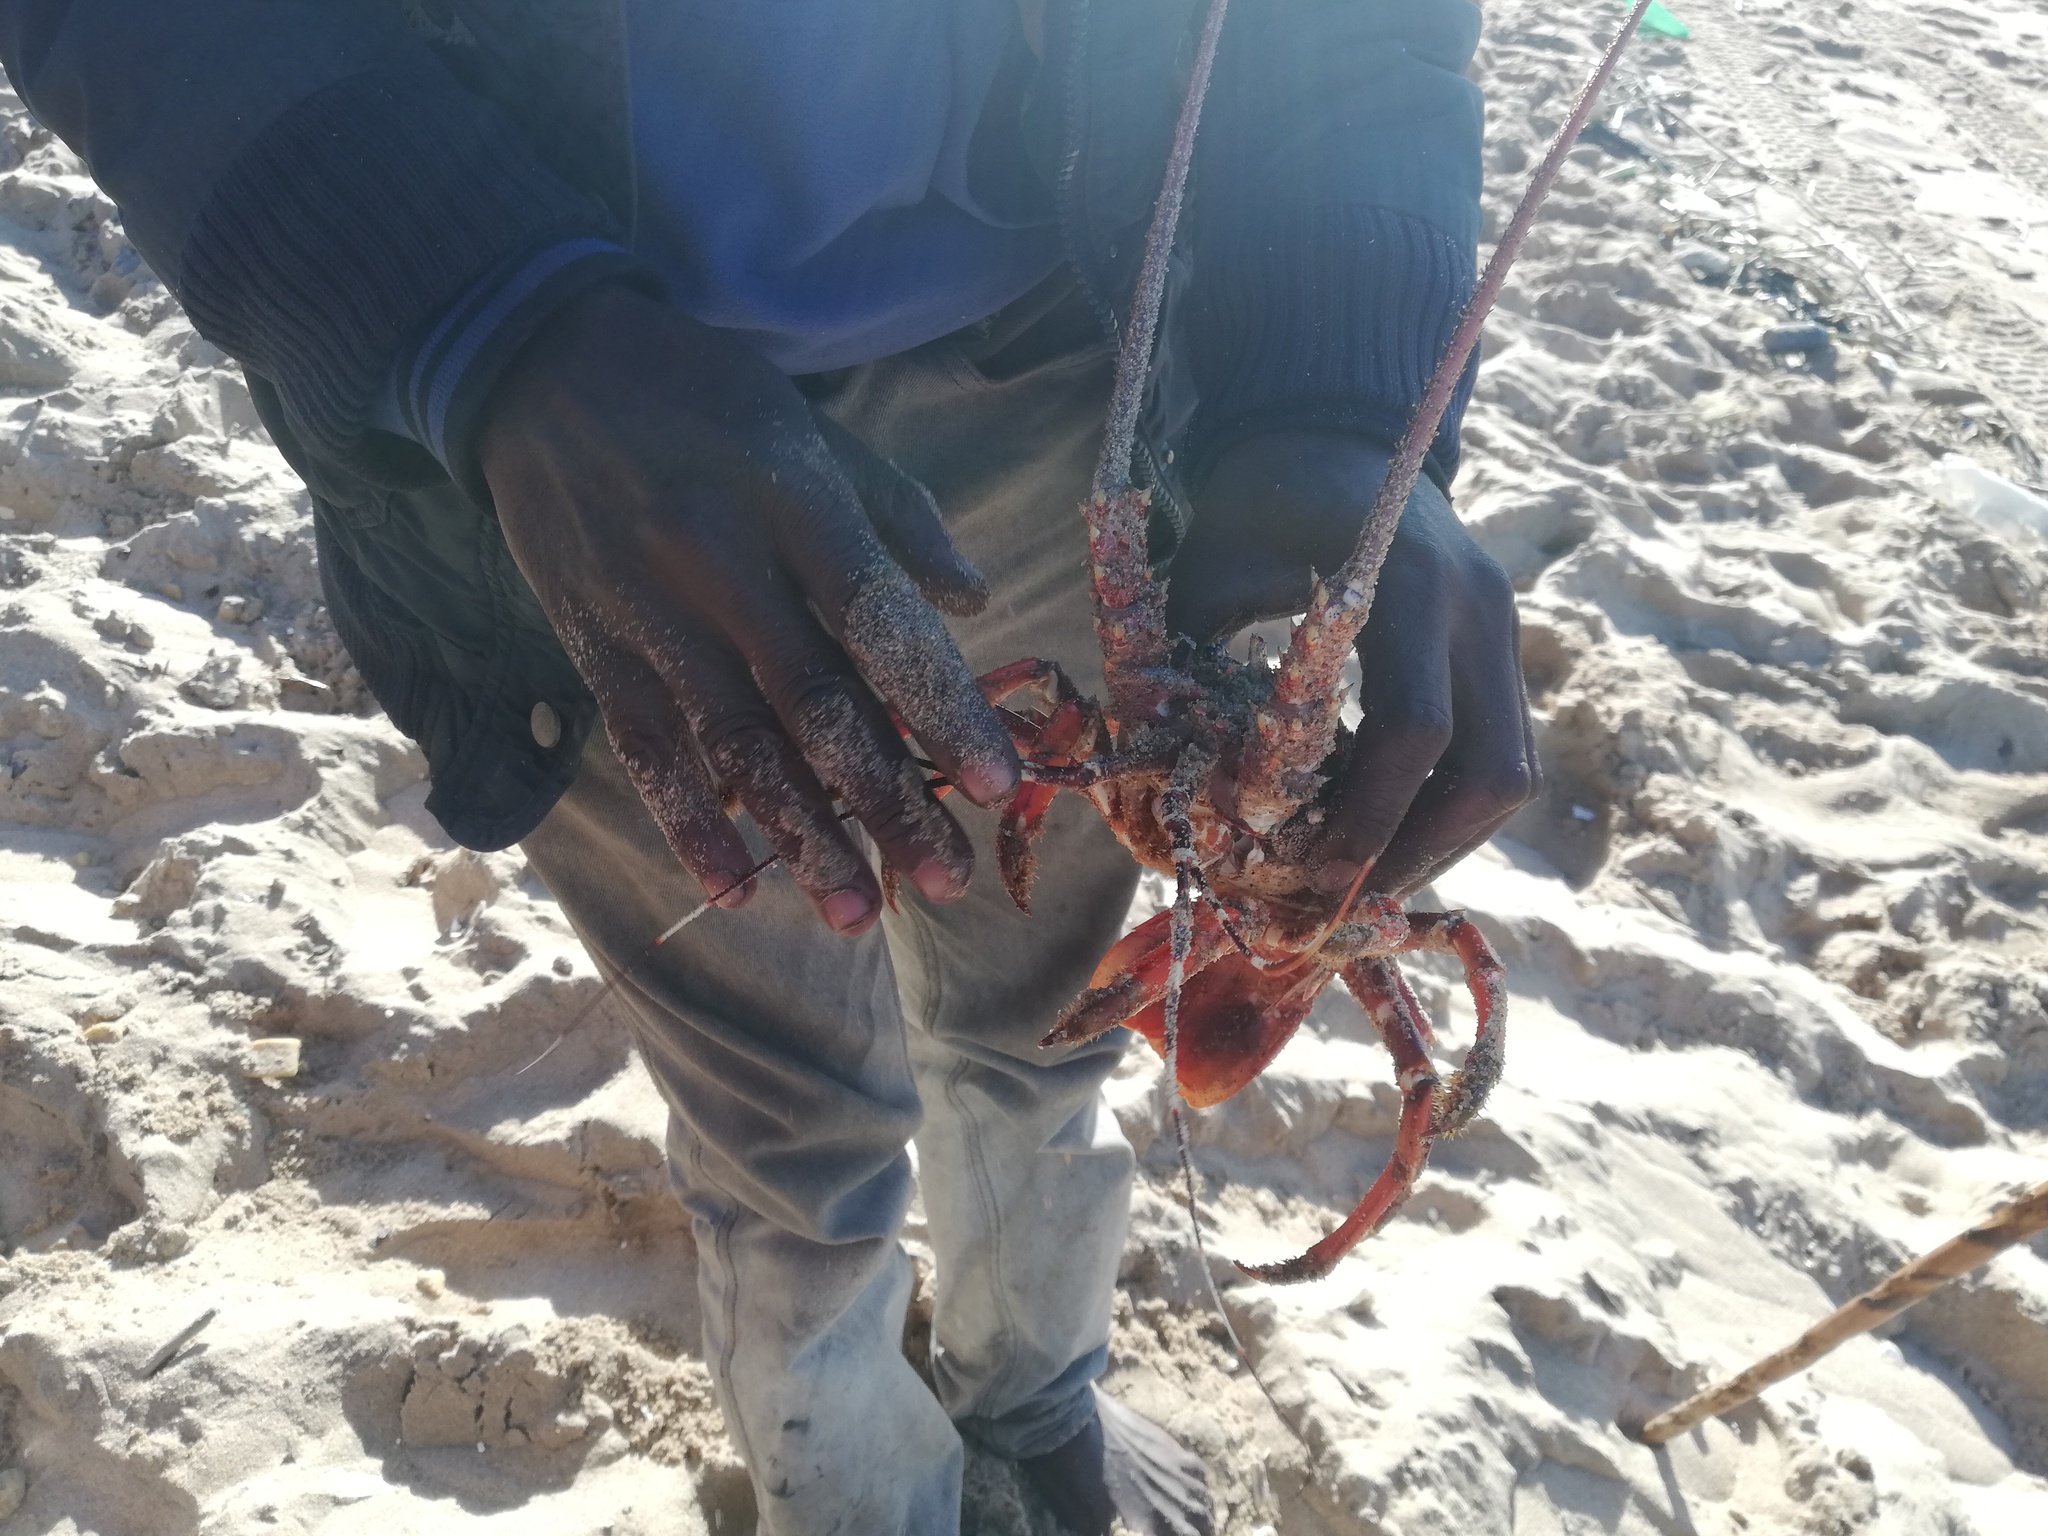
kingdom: Animalia
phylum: Arthropoda
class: Malacostraca
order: Decapoda
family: Palinuridae
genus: Panulirus
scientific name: Panulirus homarus
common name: Scalloped spiny lobster
